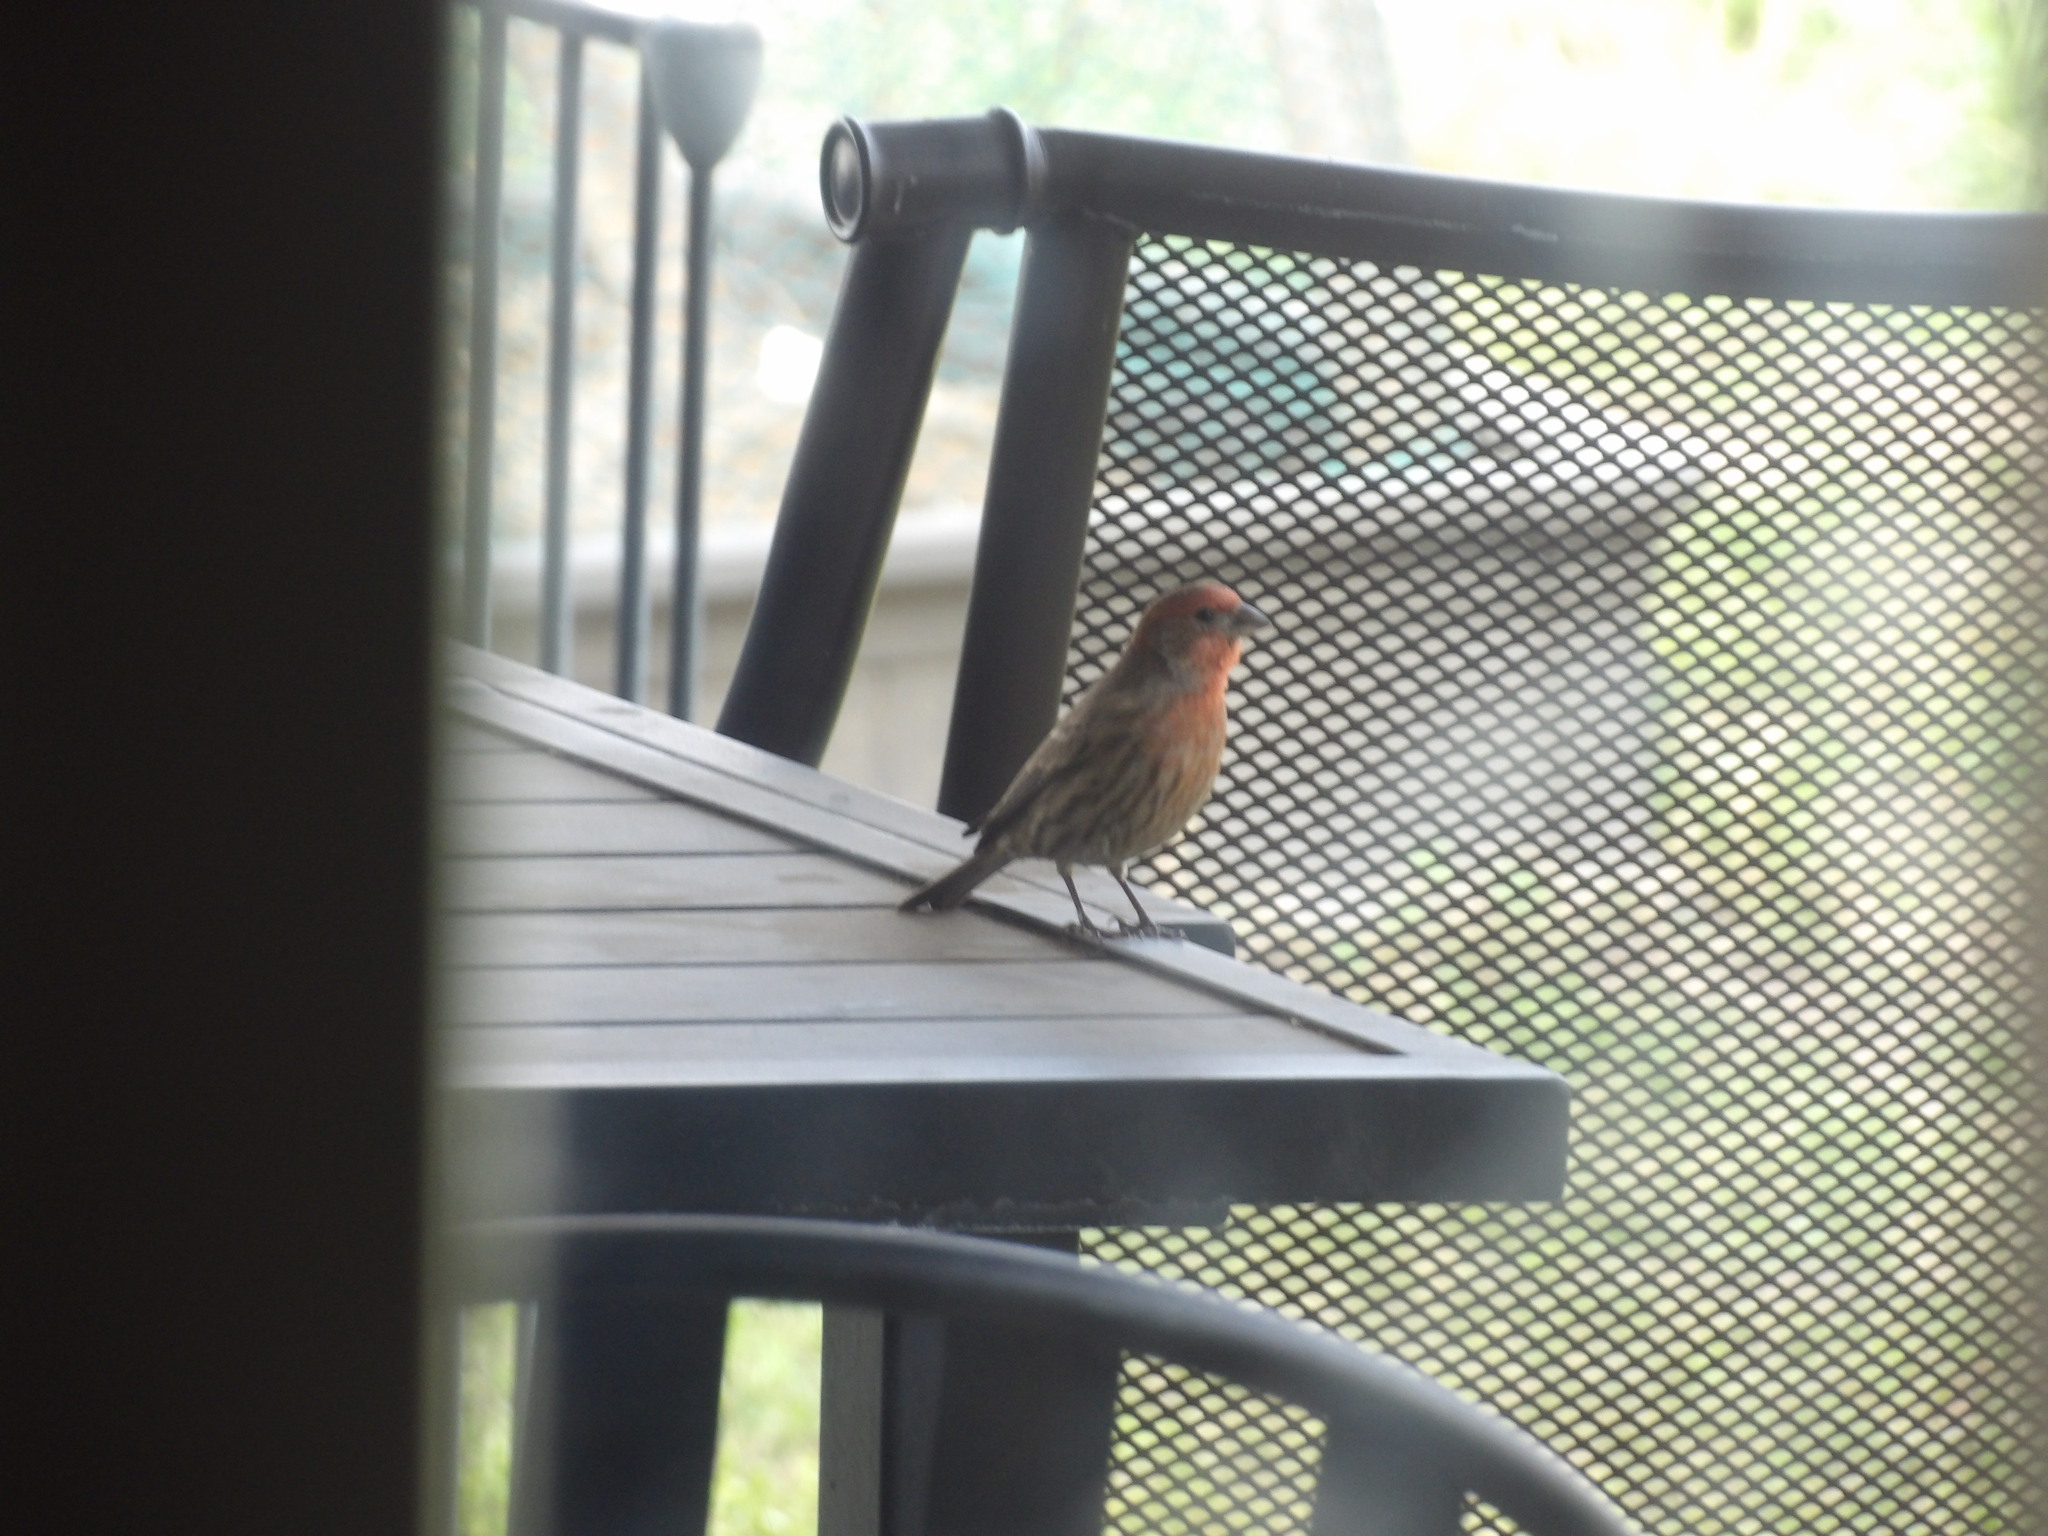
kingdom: Animalia
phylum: Chordata
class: Aves
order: Passeriformes
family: Fringillidae
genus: Haemorhous
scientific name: Haemorhous mexicanus
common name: House finch
